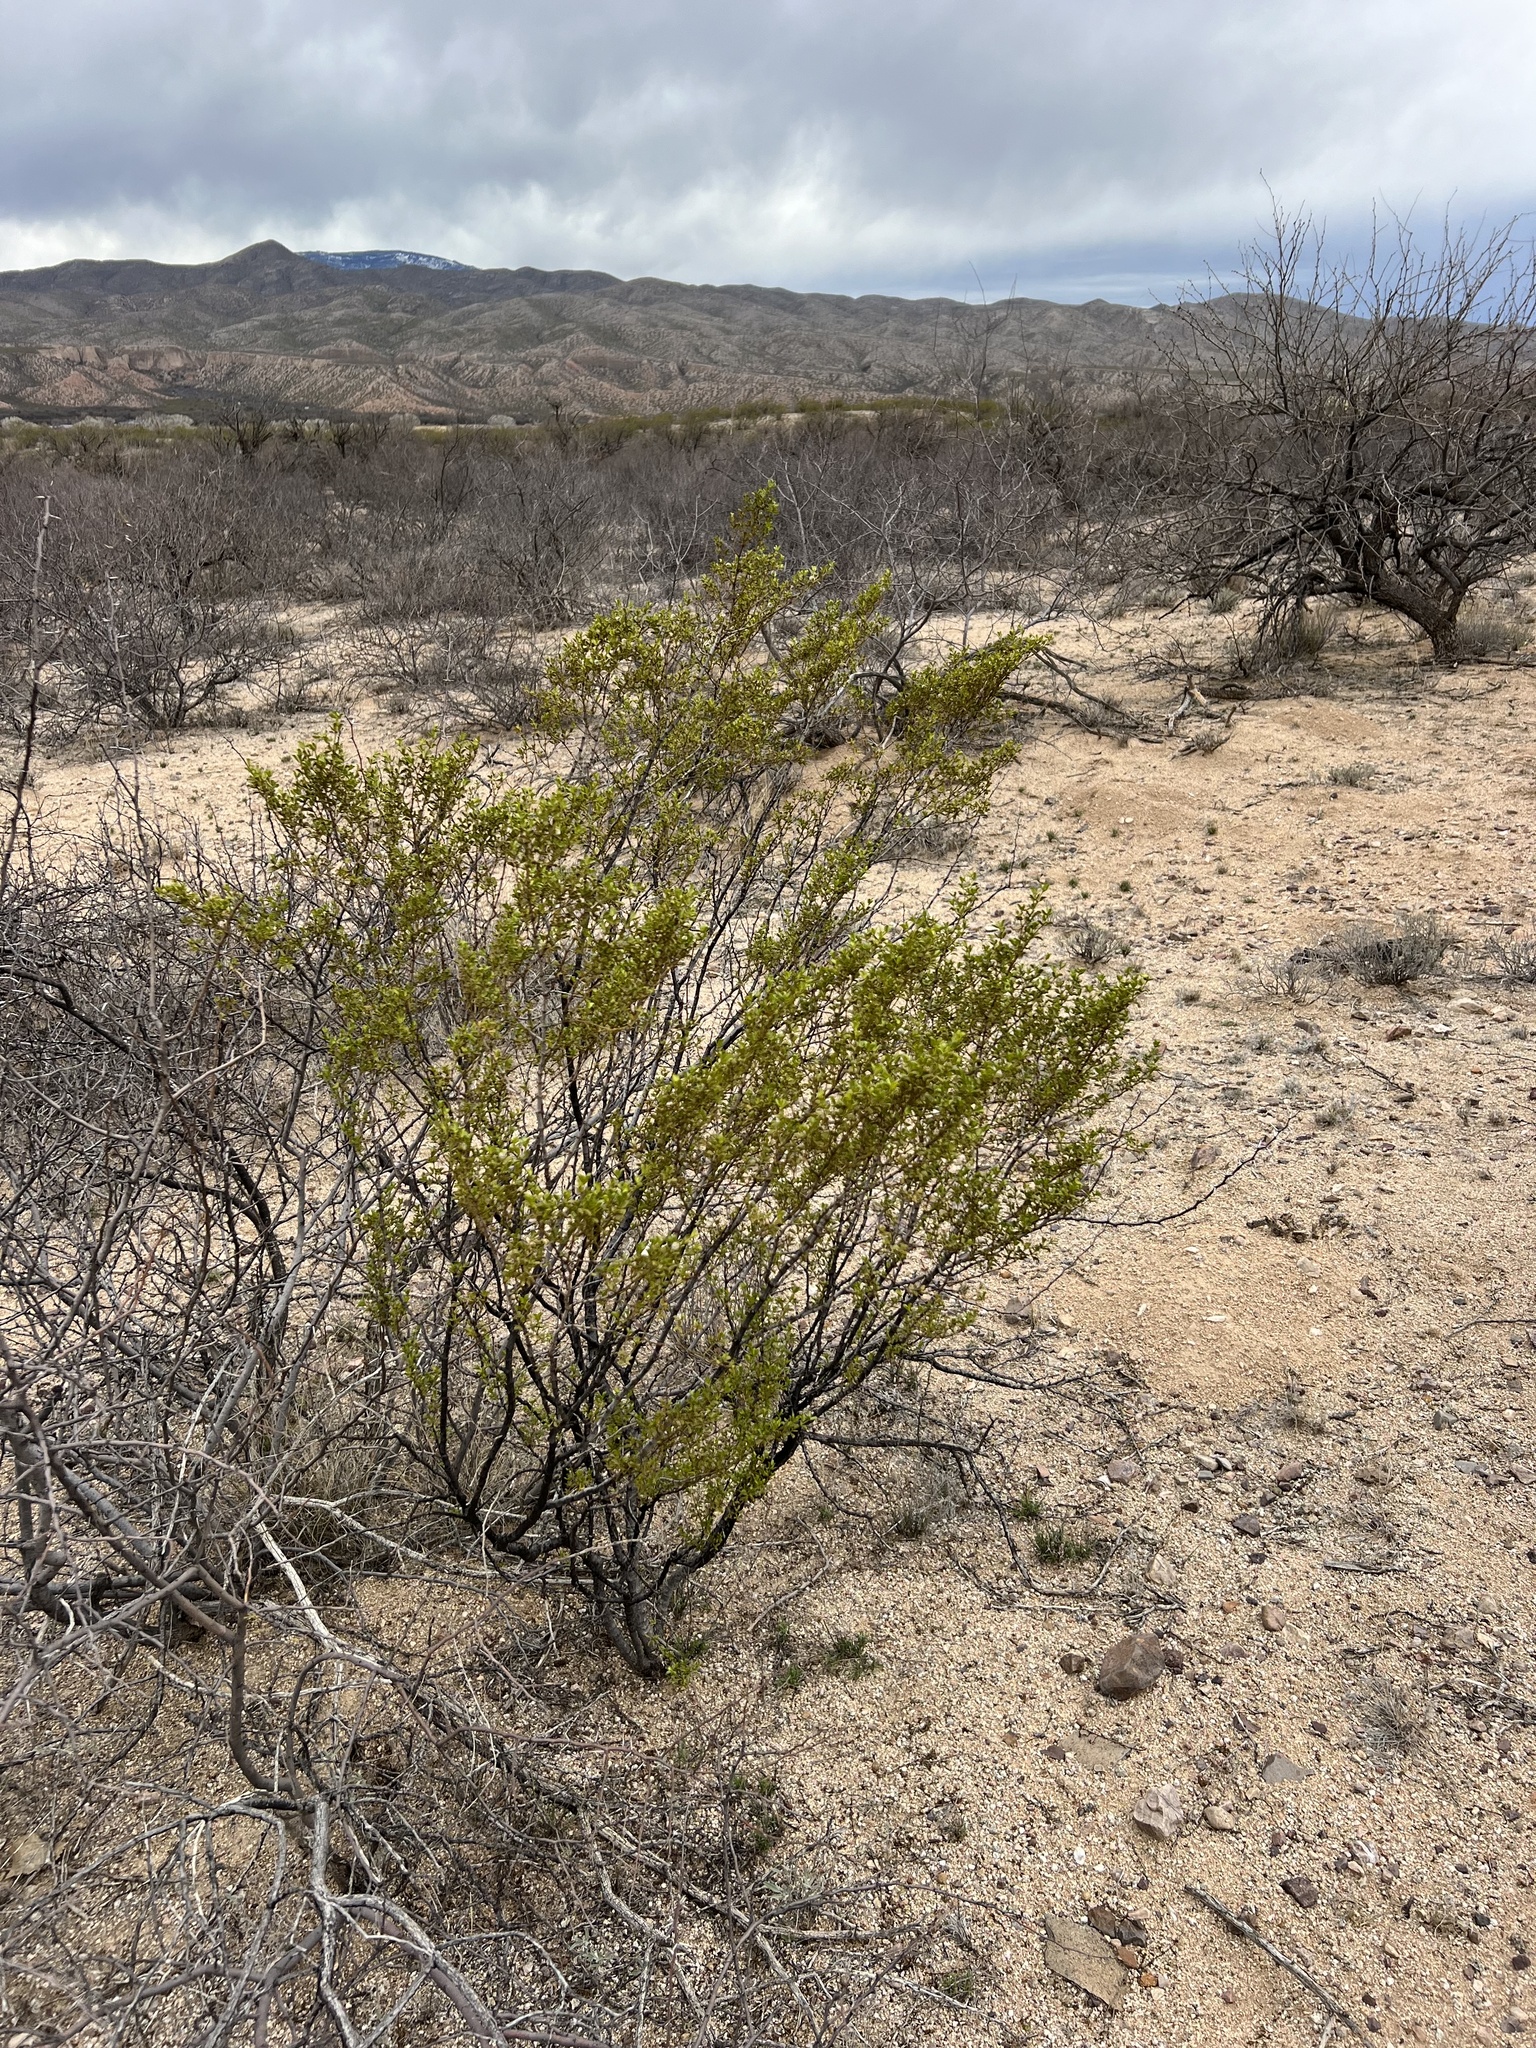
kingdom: Plantae
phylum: Tracheophyta
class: Magnoliopsida
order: Zygophyllales
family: Zygophyllaceae
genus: Larrea
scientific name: Larrea tridentata
